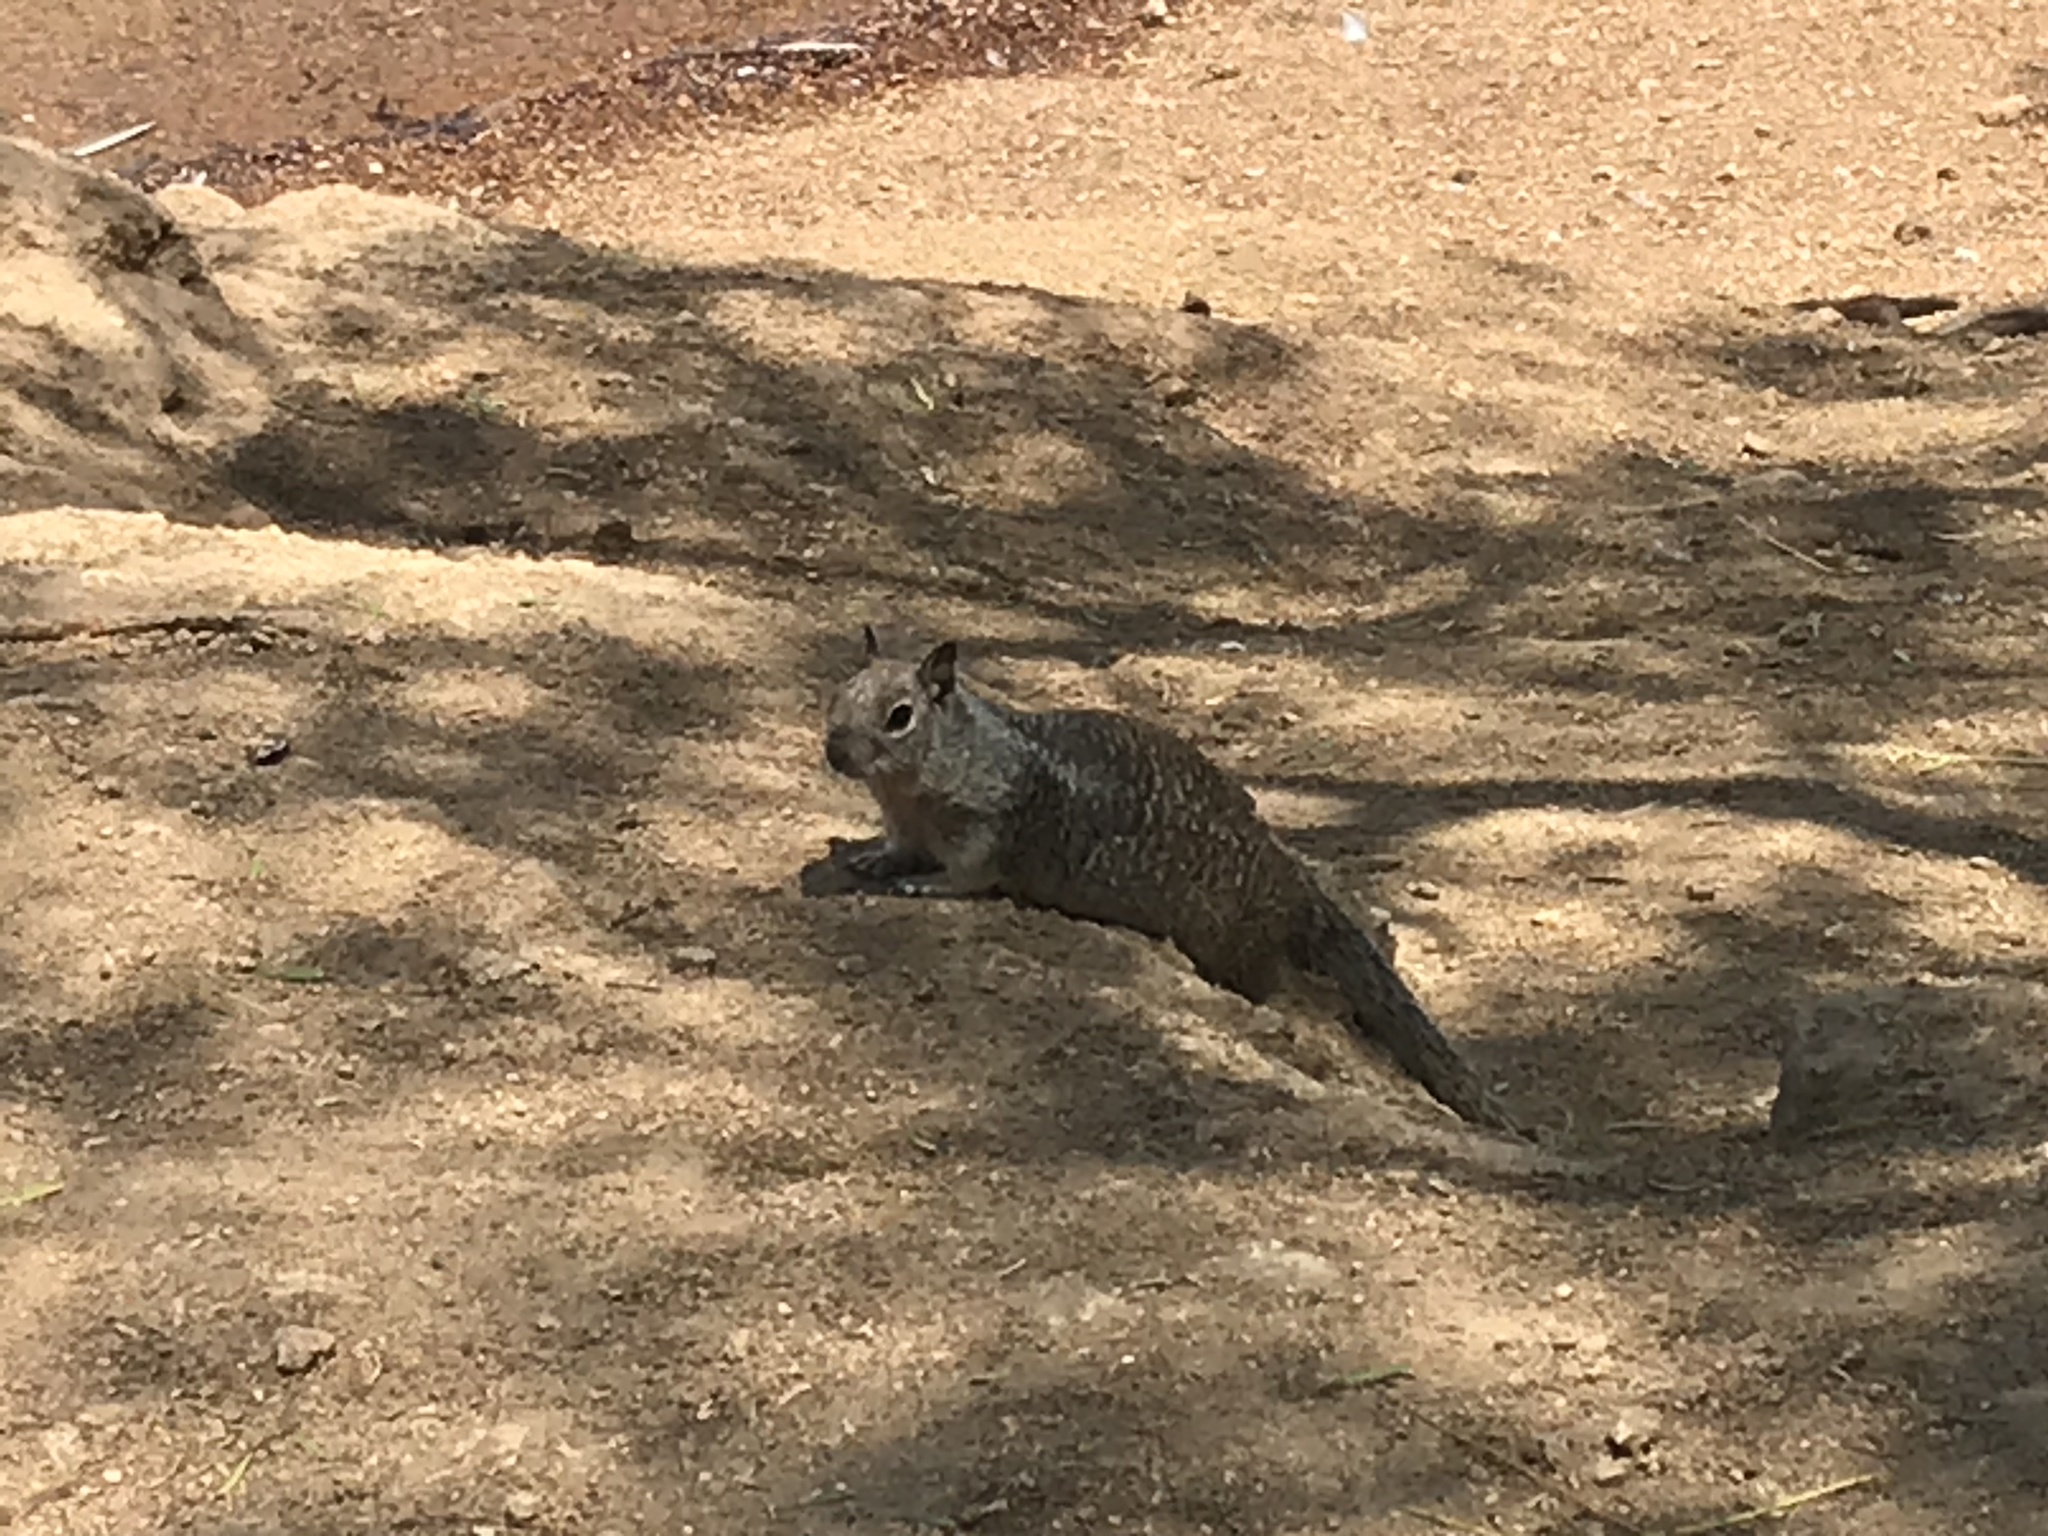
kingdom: Animalia
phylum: Chordata
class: Mammalia
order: Rodentia
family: Sciuridae
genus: Otospermophilus
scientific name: Otospermophilus beecheyi
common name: California ground squirrel
